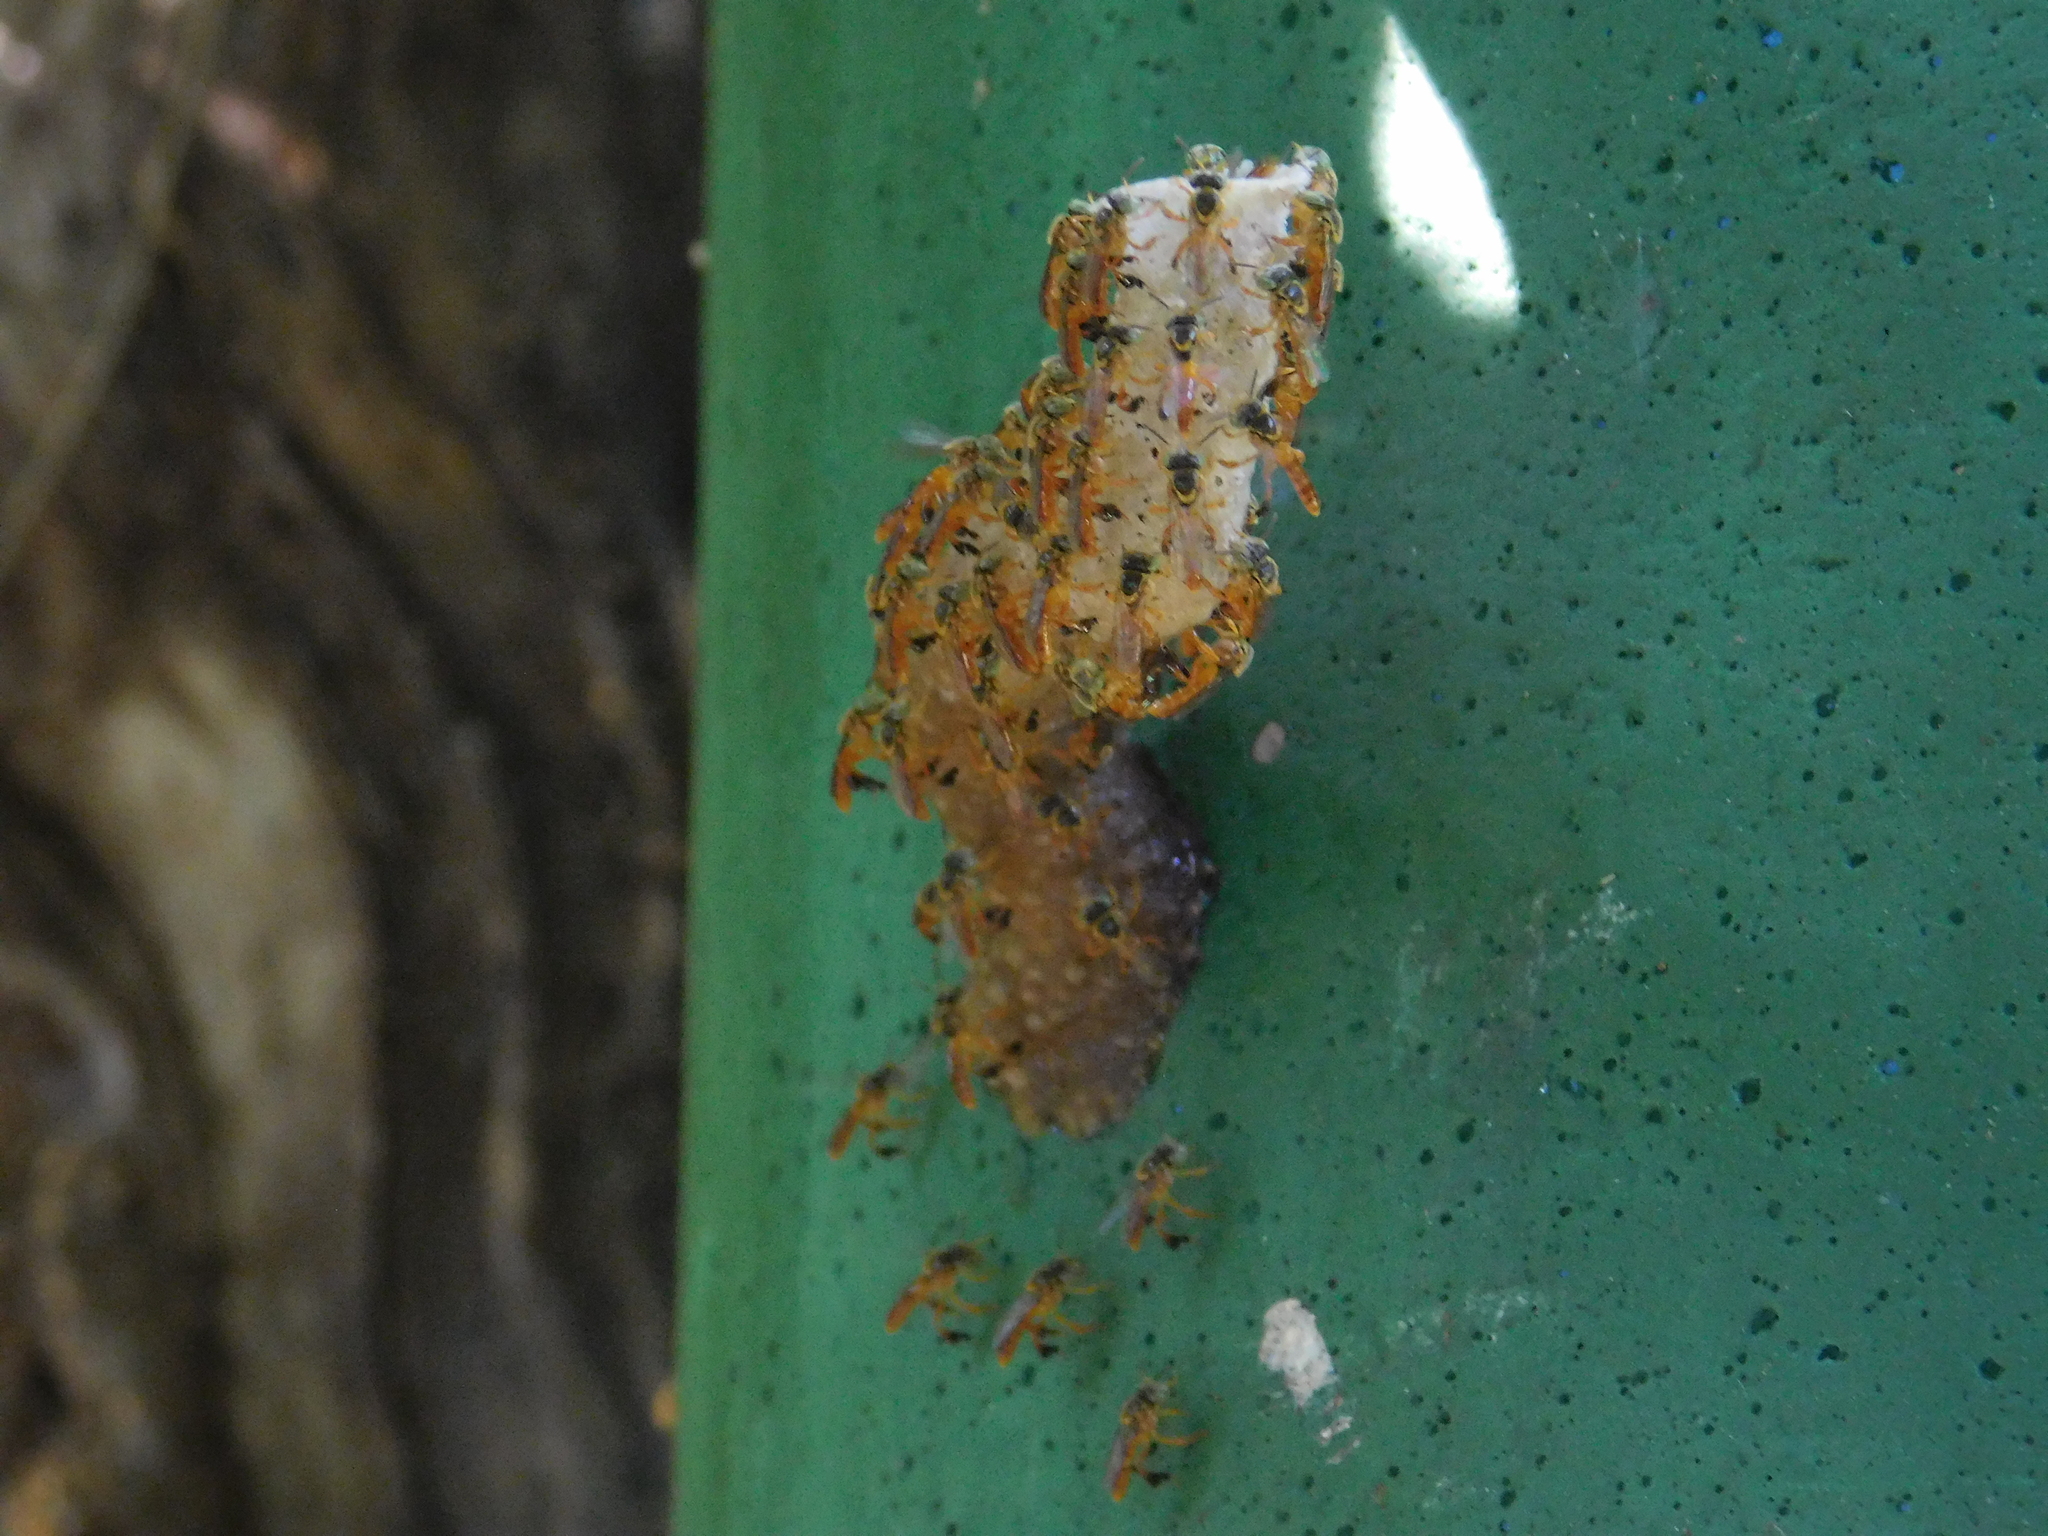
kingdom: Animalia
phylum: Arthropoda
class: Insecta
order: Hymenoptera
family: Apidae
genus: Tetragonisca
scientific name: Tetragonisca fiebrigi
